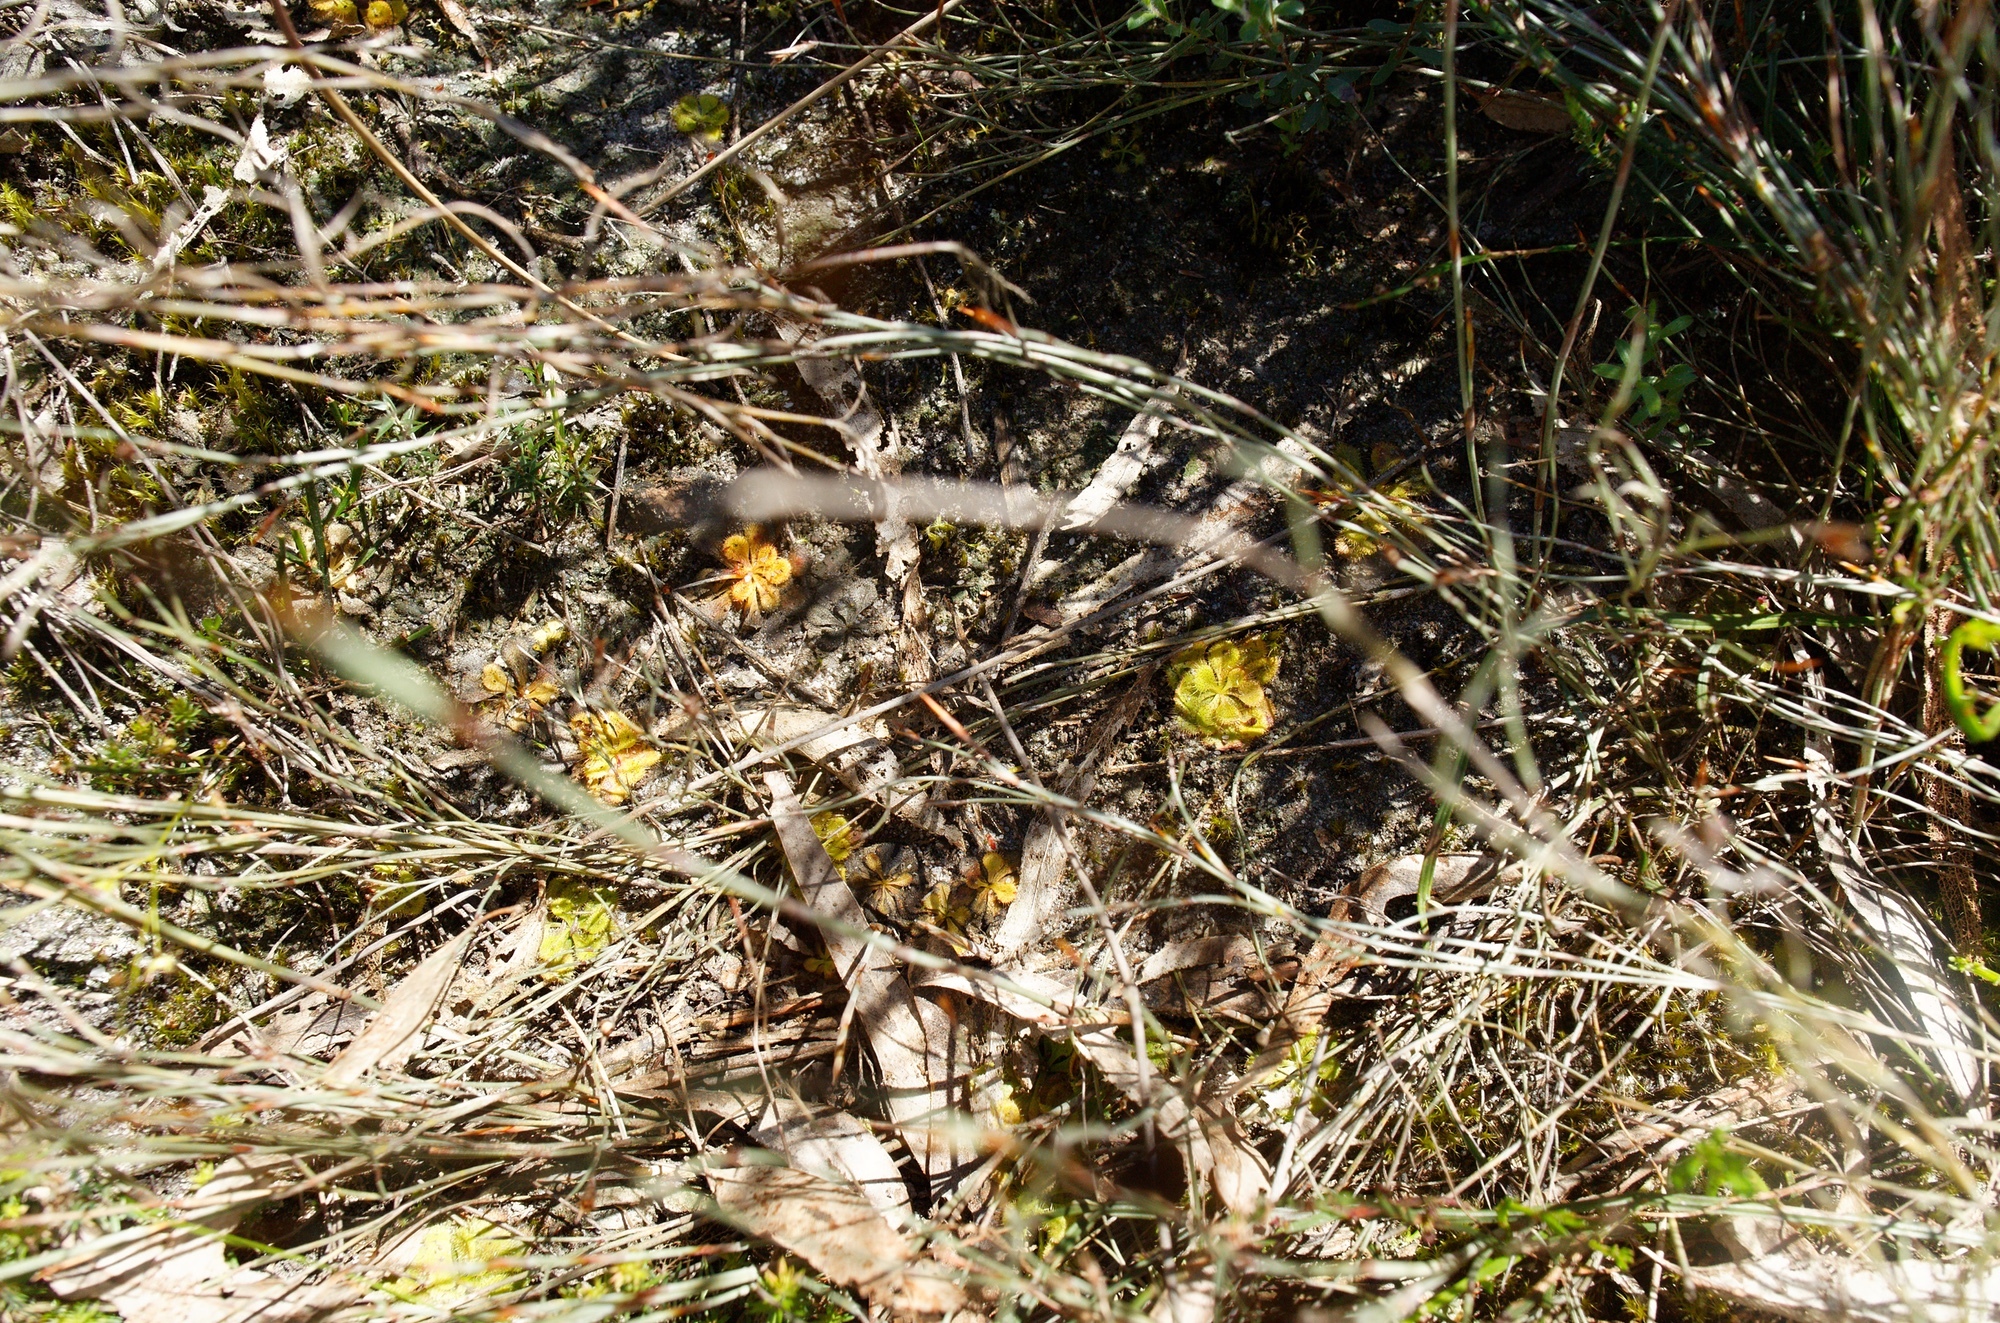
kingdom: Plantae
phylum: Tracheophyta
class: Magnoliopsida
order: Caryophyllales
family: Droseraceae
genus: Drosera
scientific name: Drosera aberrans
